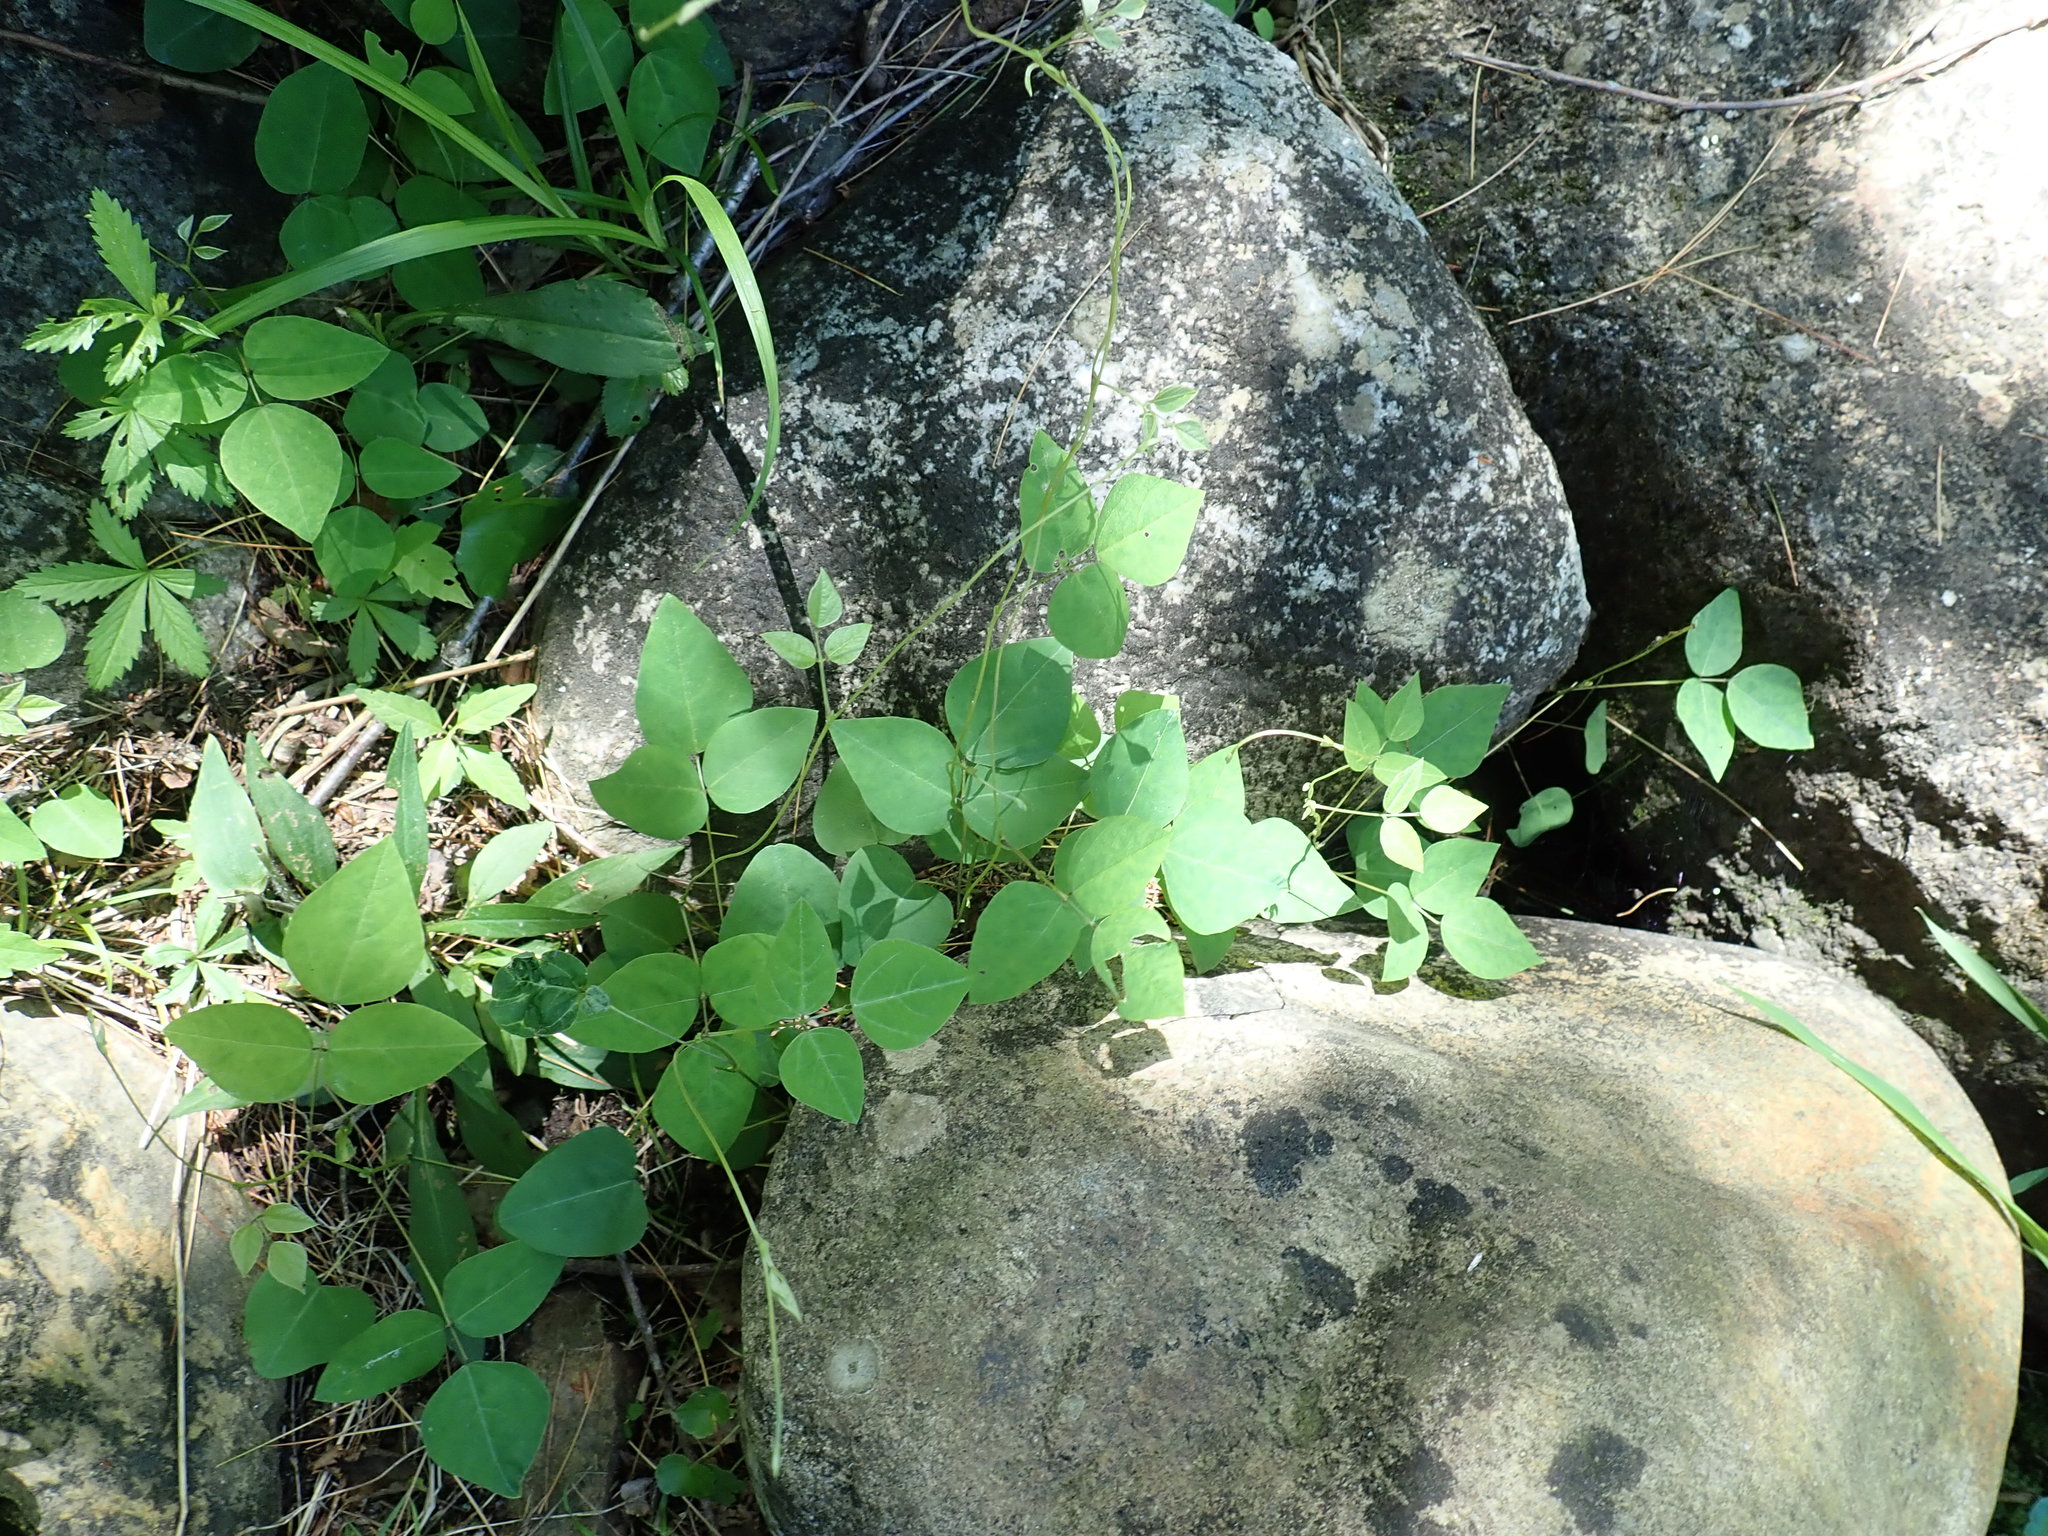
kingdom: Plantae
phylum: Tracheophyta
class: Magnoliopsida
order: Fabales
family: Fabaceae
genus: Amphicarpaea
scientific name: Amphicarpaea bracteata
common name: American hog peanut
